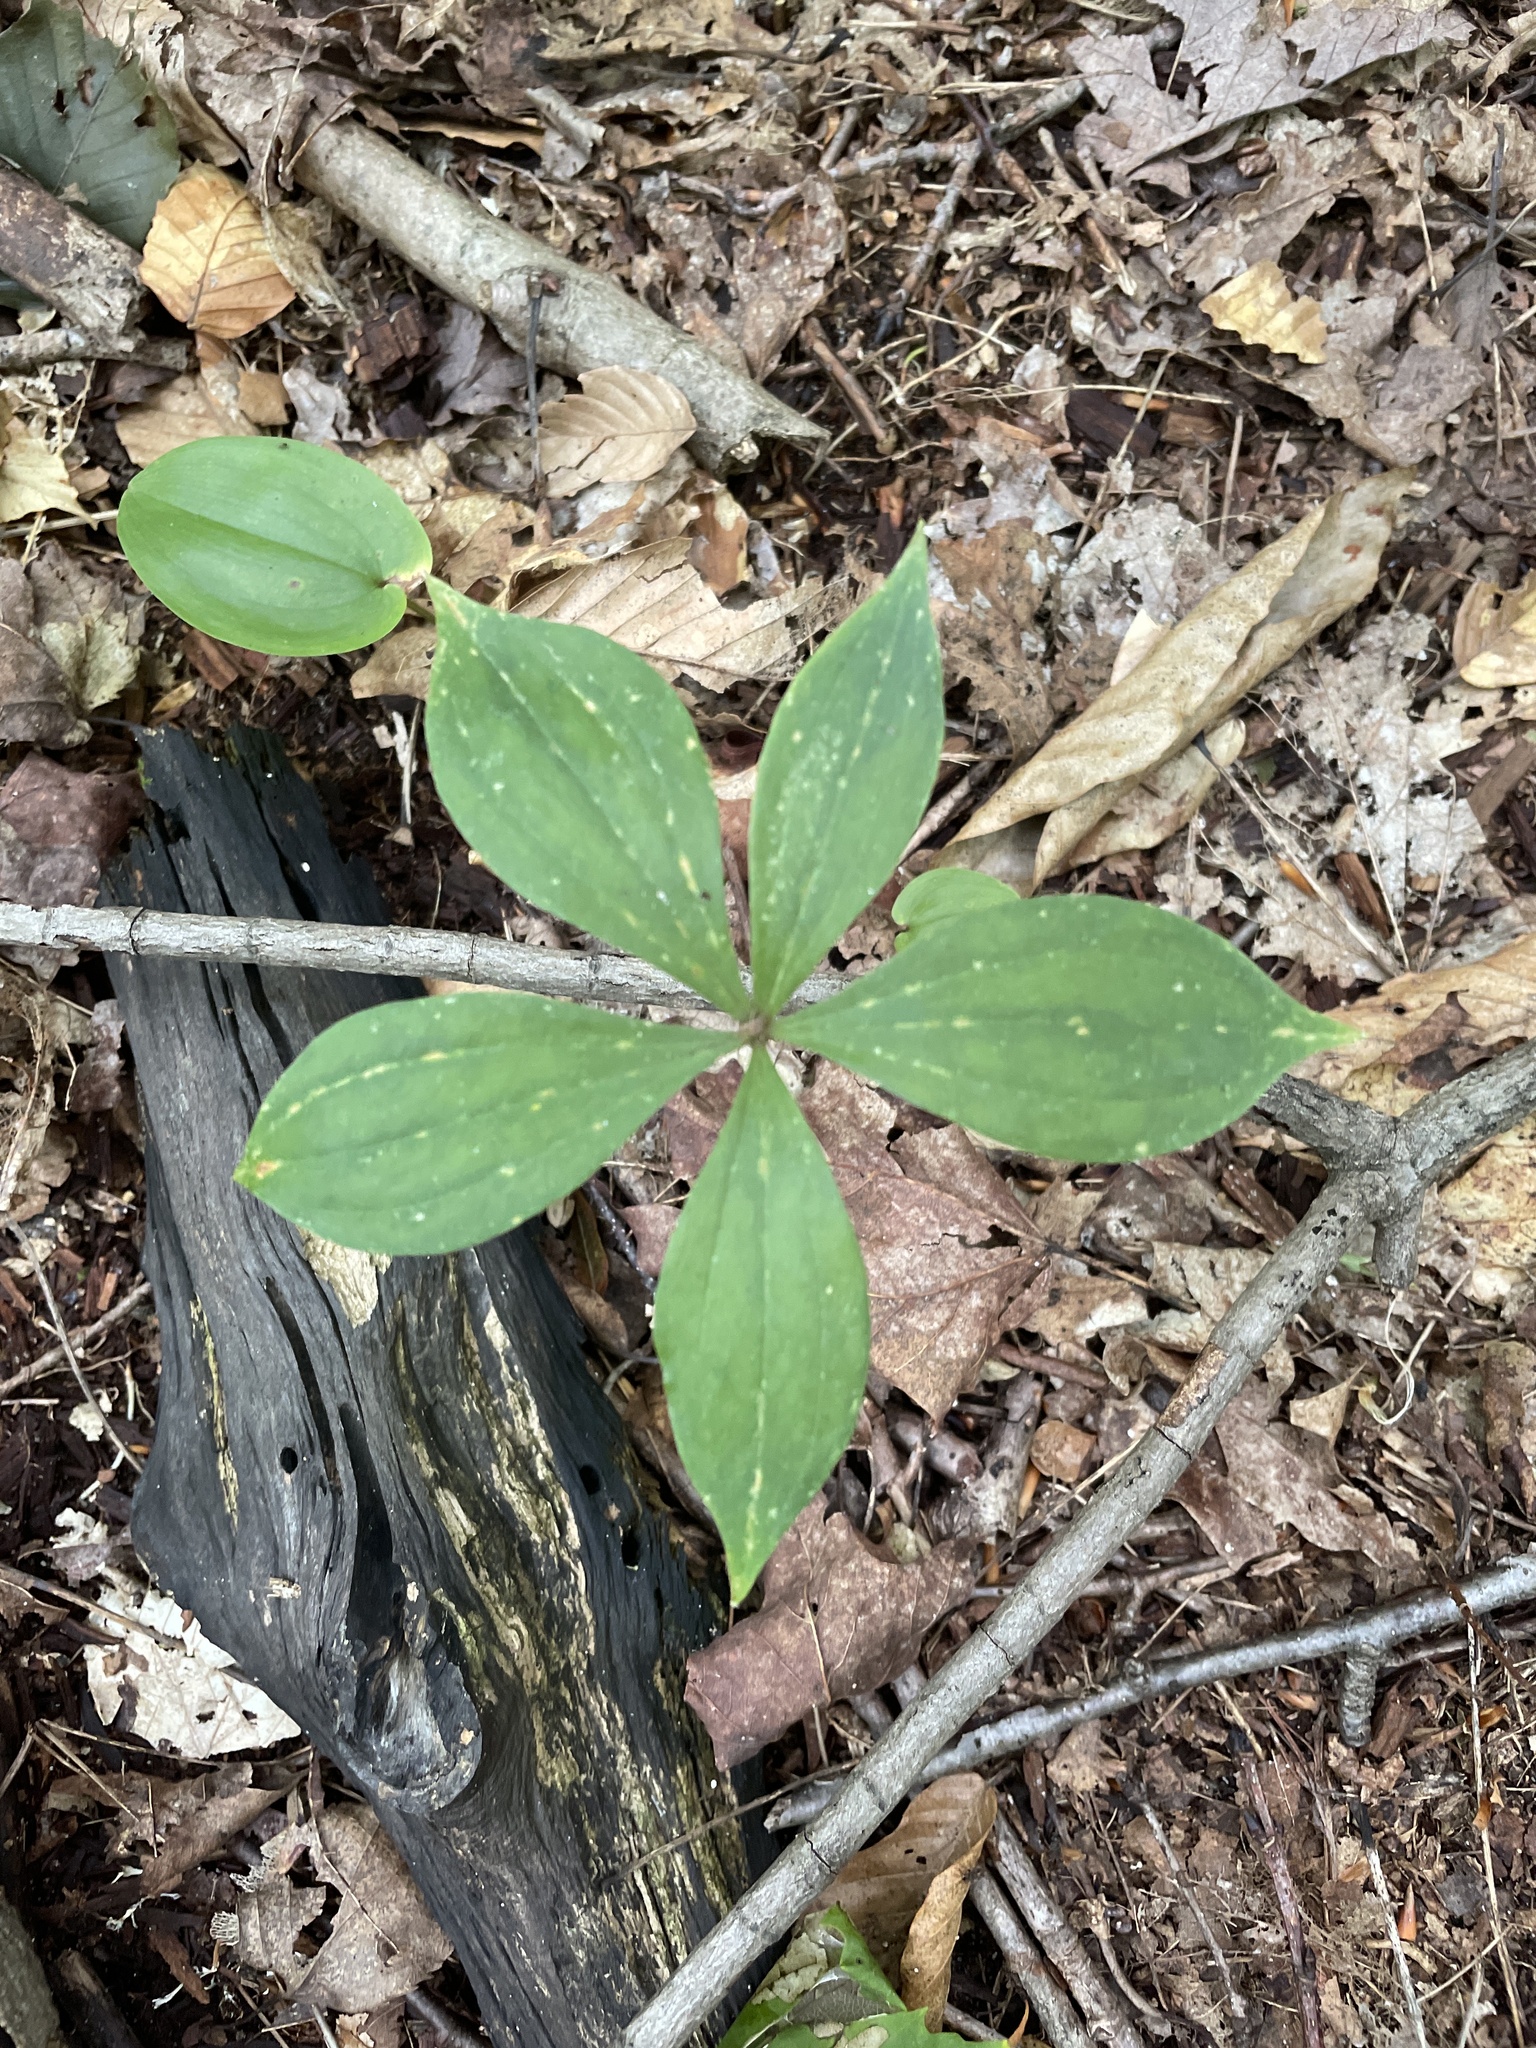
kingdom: Plantae
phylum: Tracheophyta
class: Liliopsida
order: Liliales
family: Liliaceae
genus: Medeola
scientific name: Medeola virginiana
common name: Indian cucumber-root
